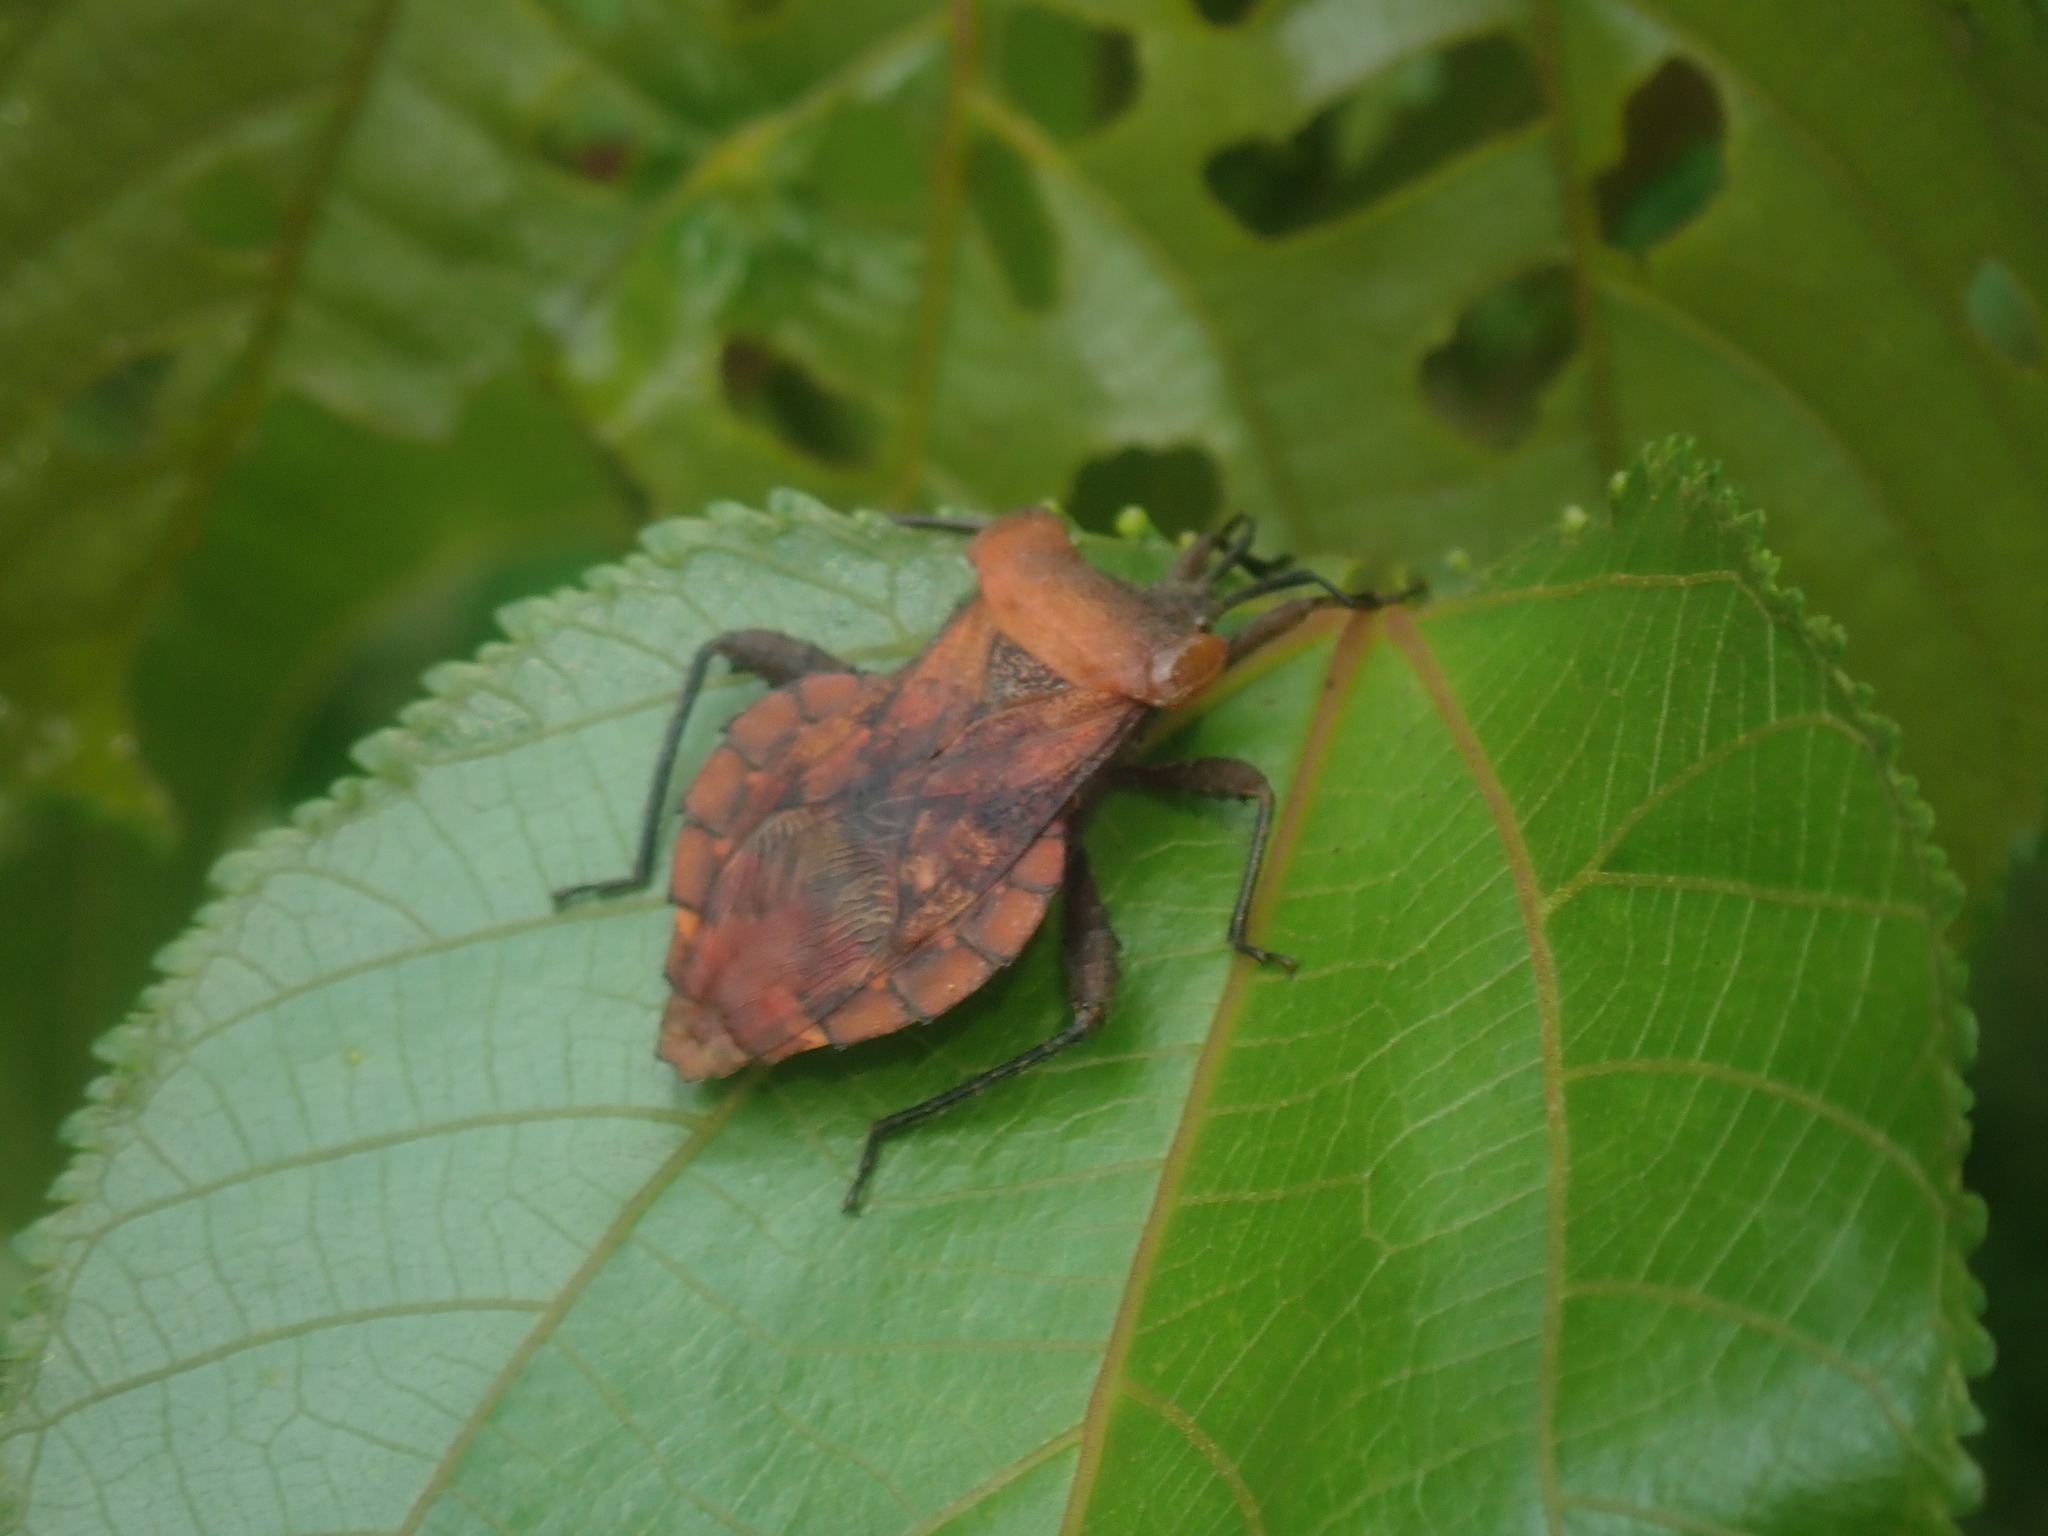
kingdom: Animalia
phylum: Arthropoda
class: Insecta
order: Hemiptera
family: Coreidae
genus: Piezogaster
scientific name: Piezogaster auriculatus
